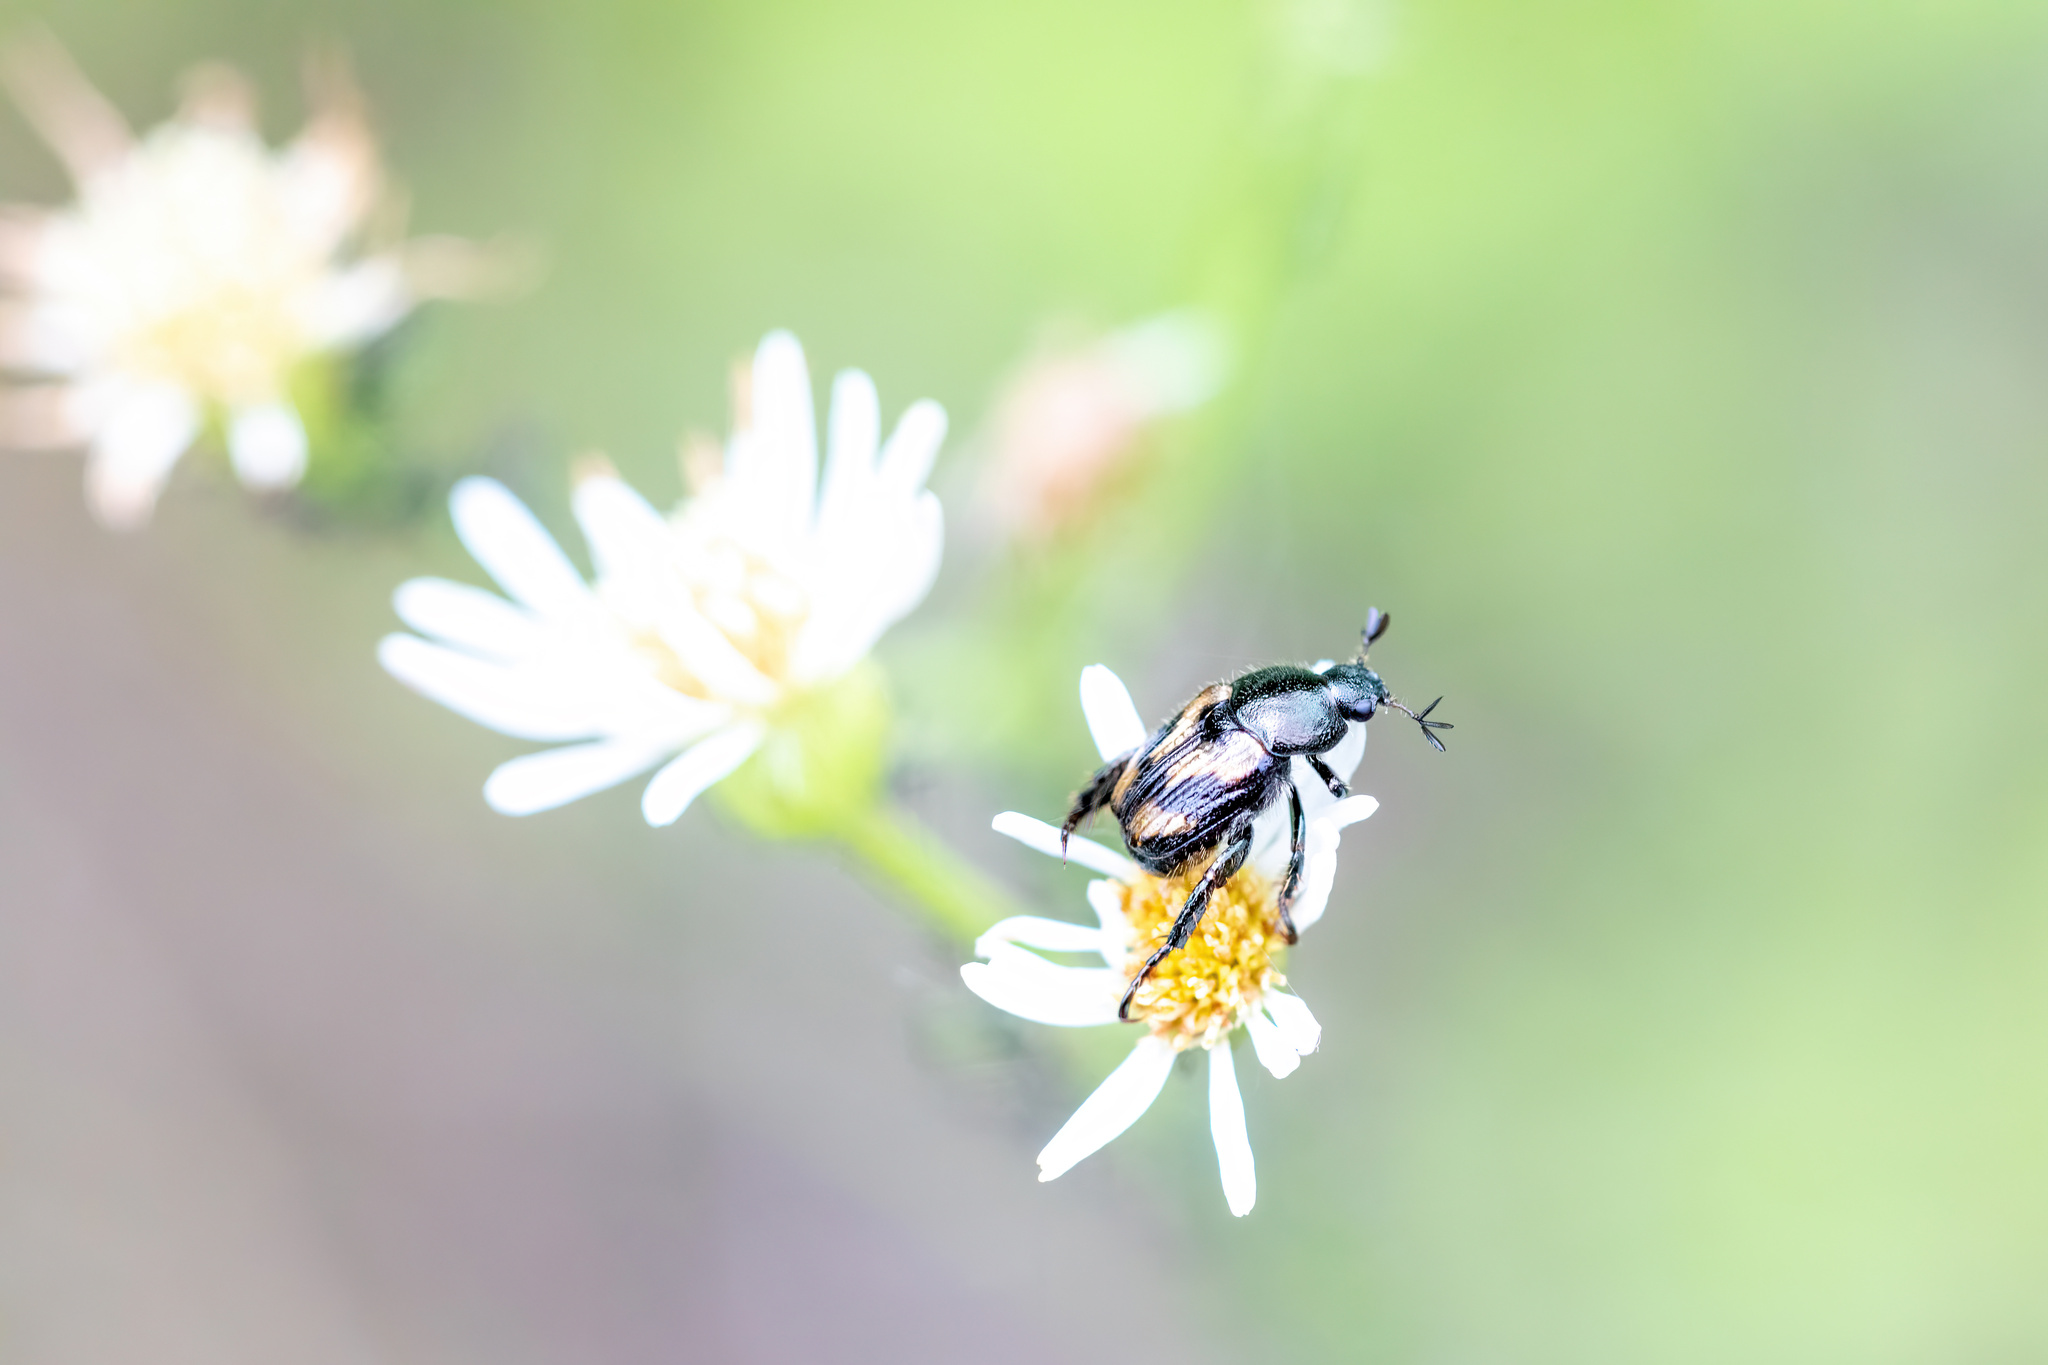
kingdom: Animalia
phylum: Arthropoda
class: Insecta
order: Coleoptera
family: Scarabaeidae
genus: Strigoderma
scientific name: Strigoderma pygmaea
